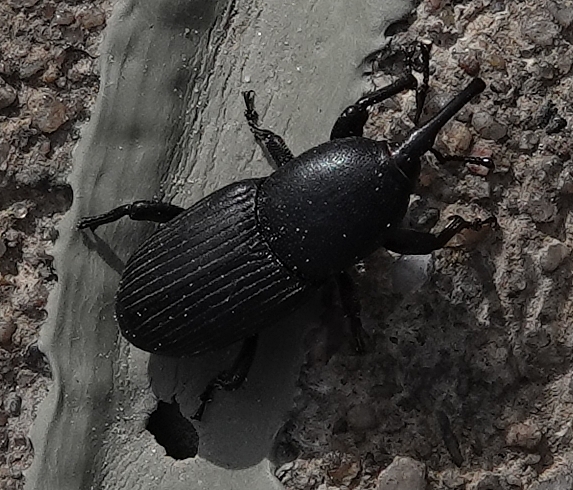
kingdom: Animalia
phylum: Arthropoda
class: Insecta
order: Coleoptera
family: Dryophthoridae
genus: Scyphophorus
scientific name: Scyphophorus acupunctatus
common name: Weevil
